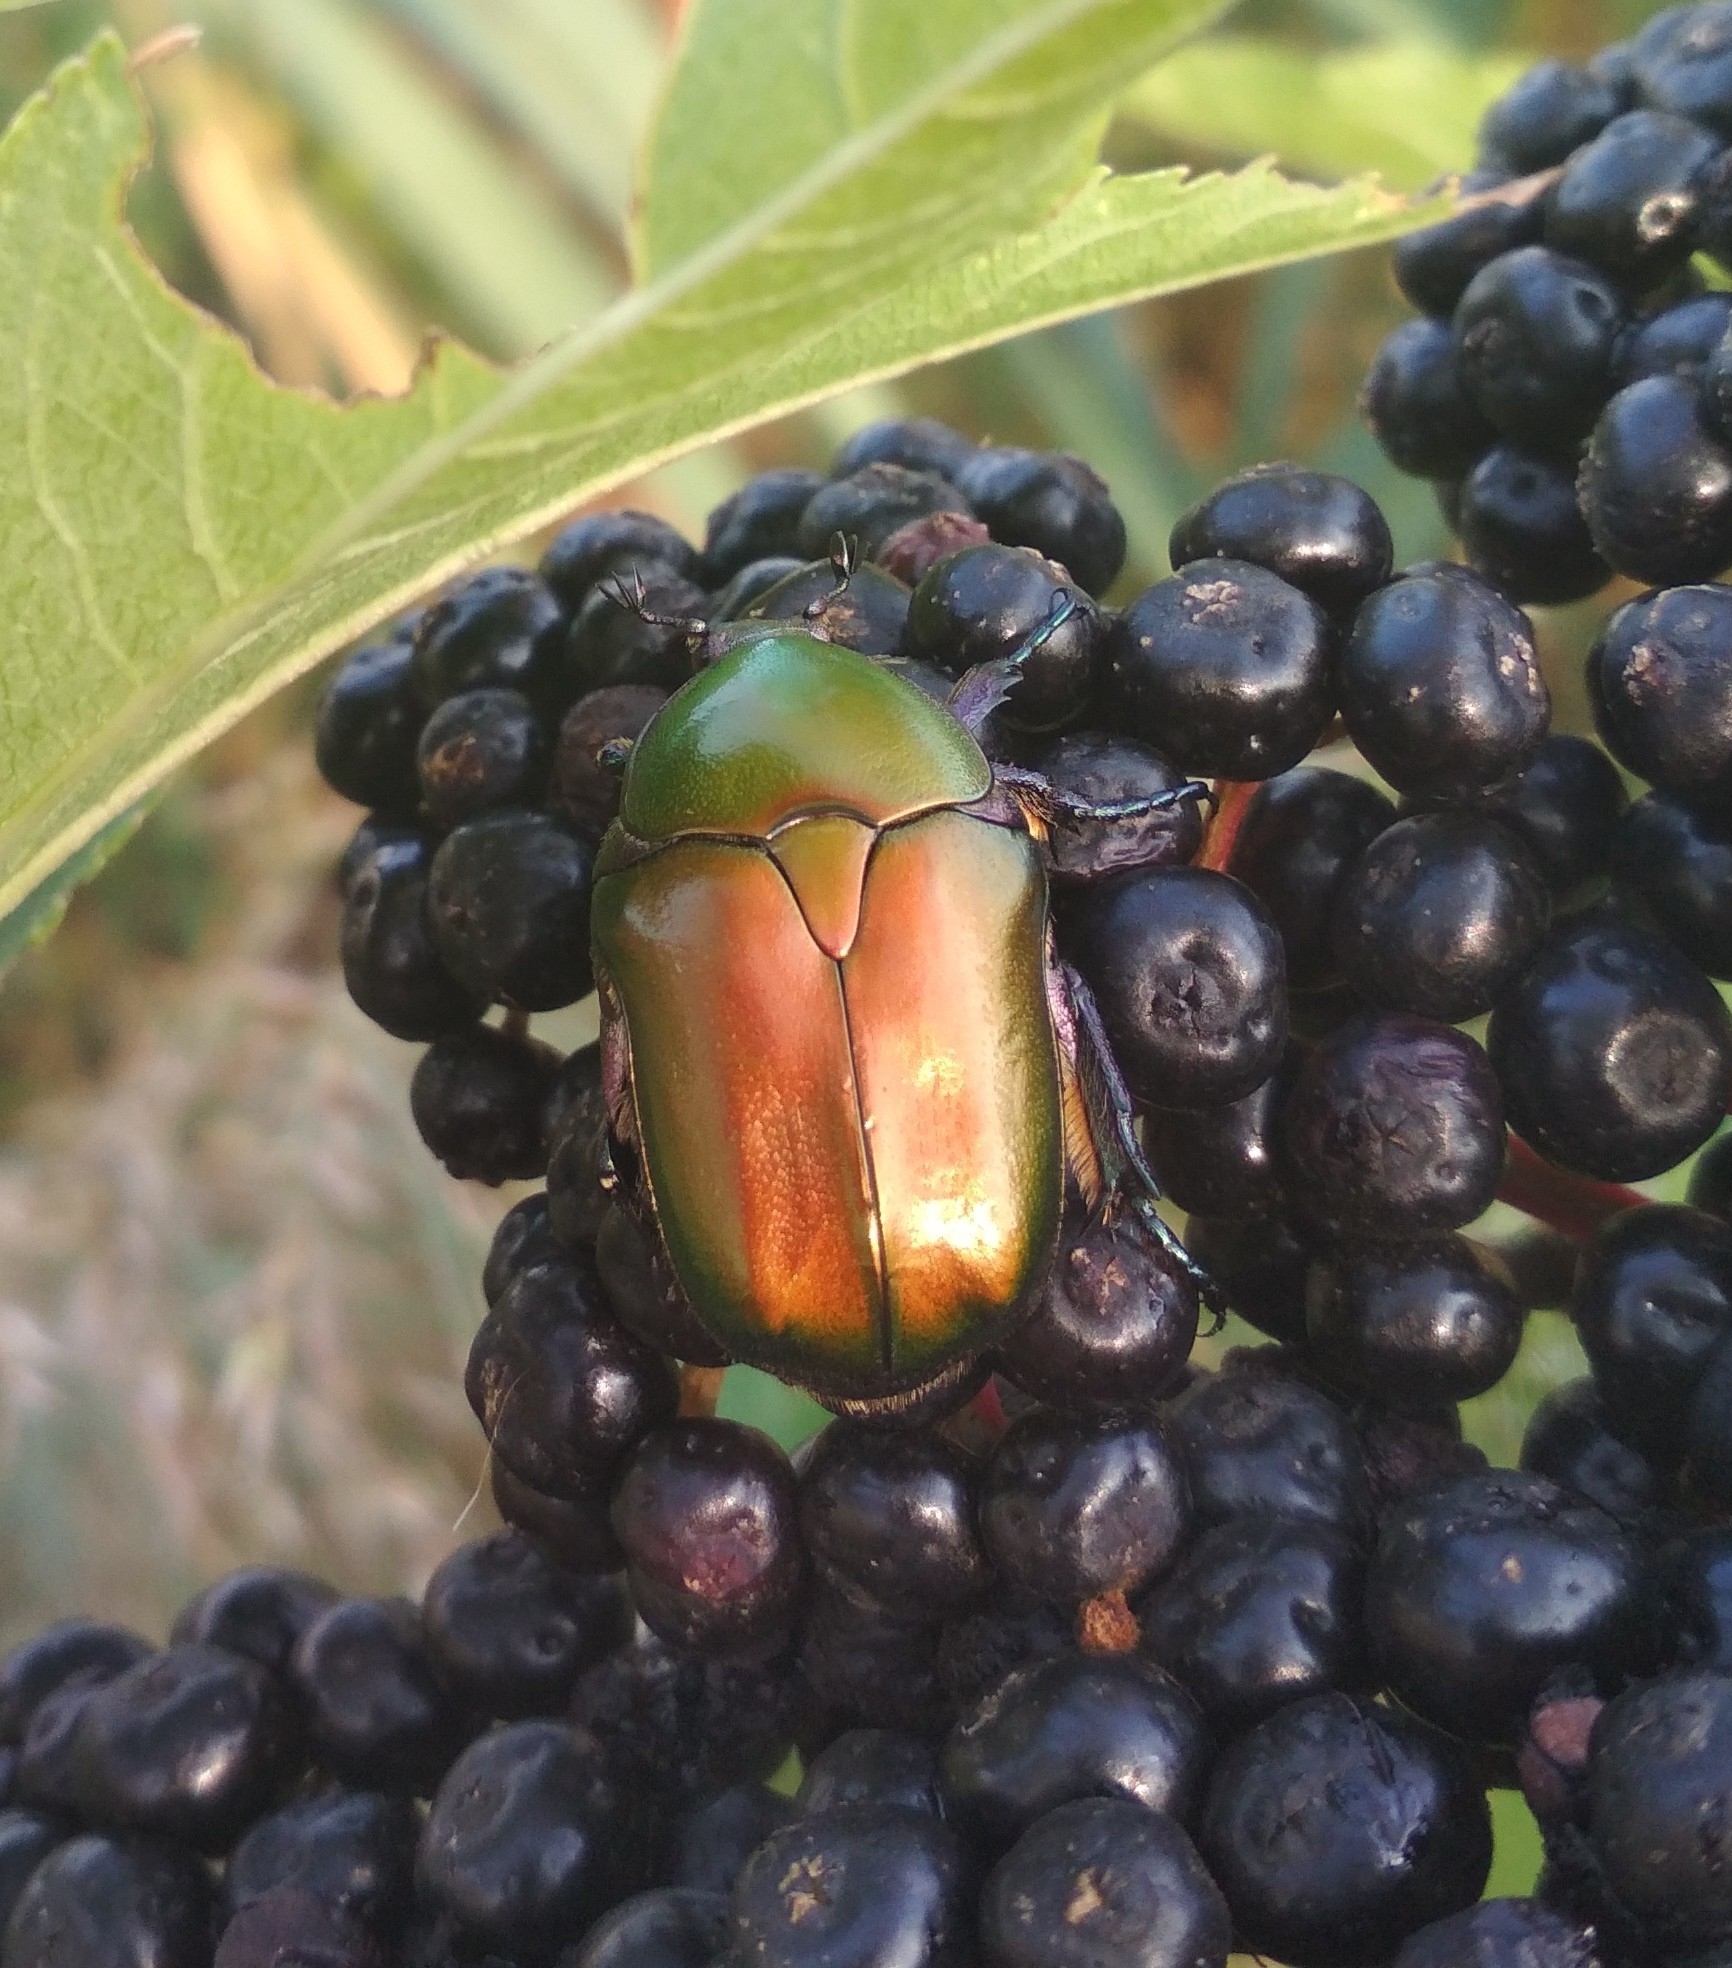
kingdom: Animalia
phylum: Arthropoda
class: Insecta
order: Coleoptera
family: Scarabaeidae
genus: Protaetia
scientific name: Protaetia cuprea
